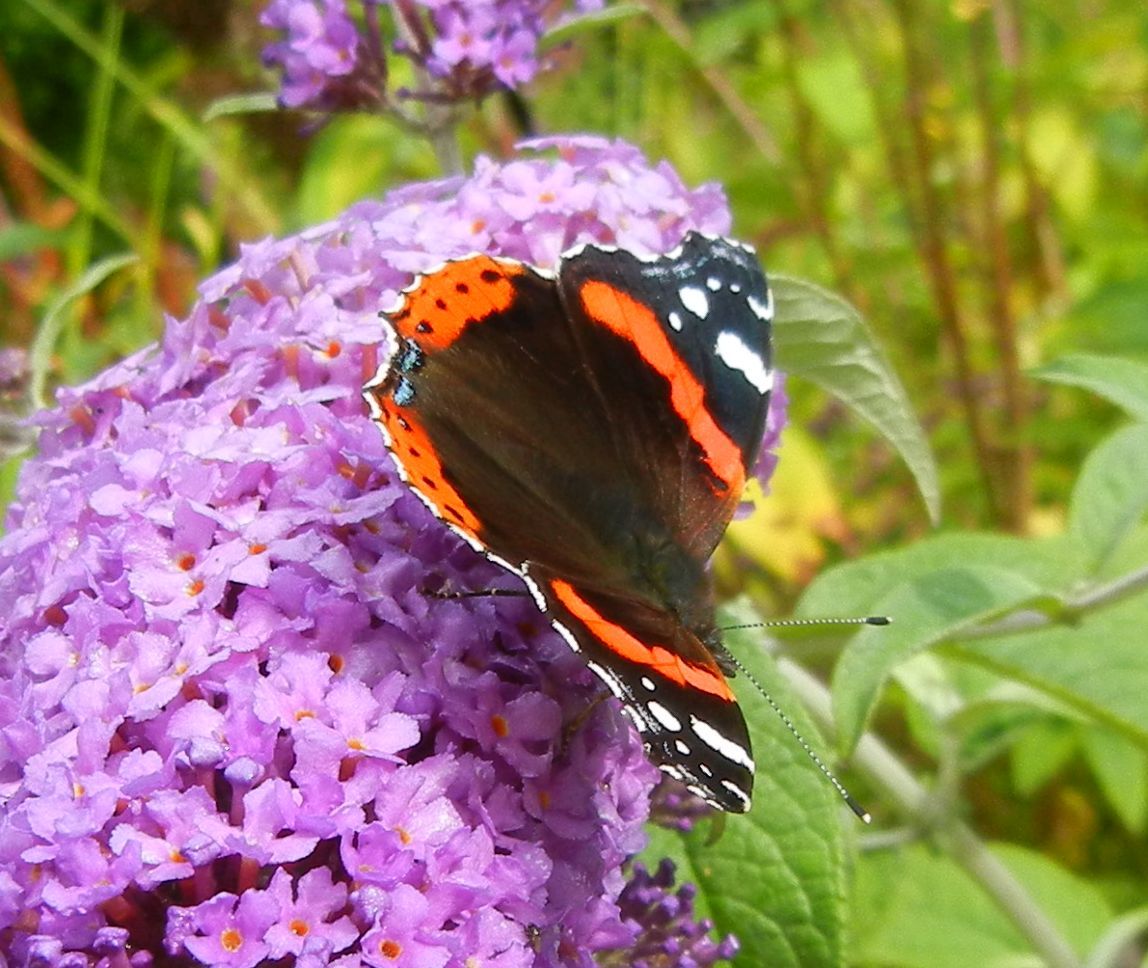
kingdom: Animalia
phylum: Arthropoda
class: Insecta
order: Lepidoptera
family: Nymphalidae
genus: Vanessa
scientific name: Vanessa atalanta
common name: Red admiral
